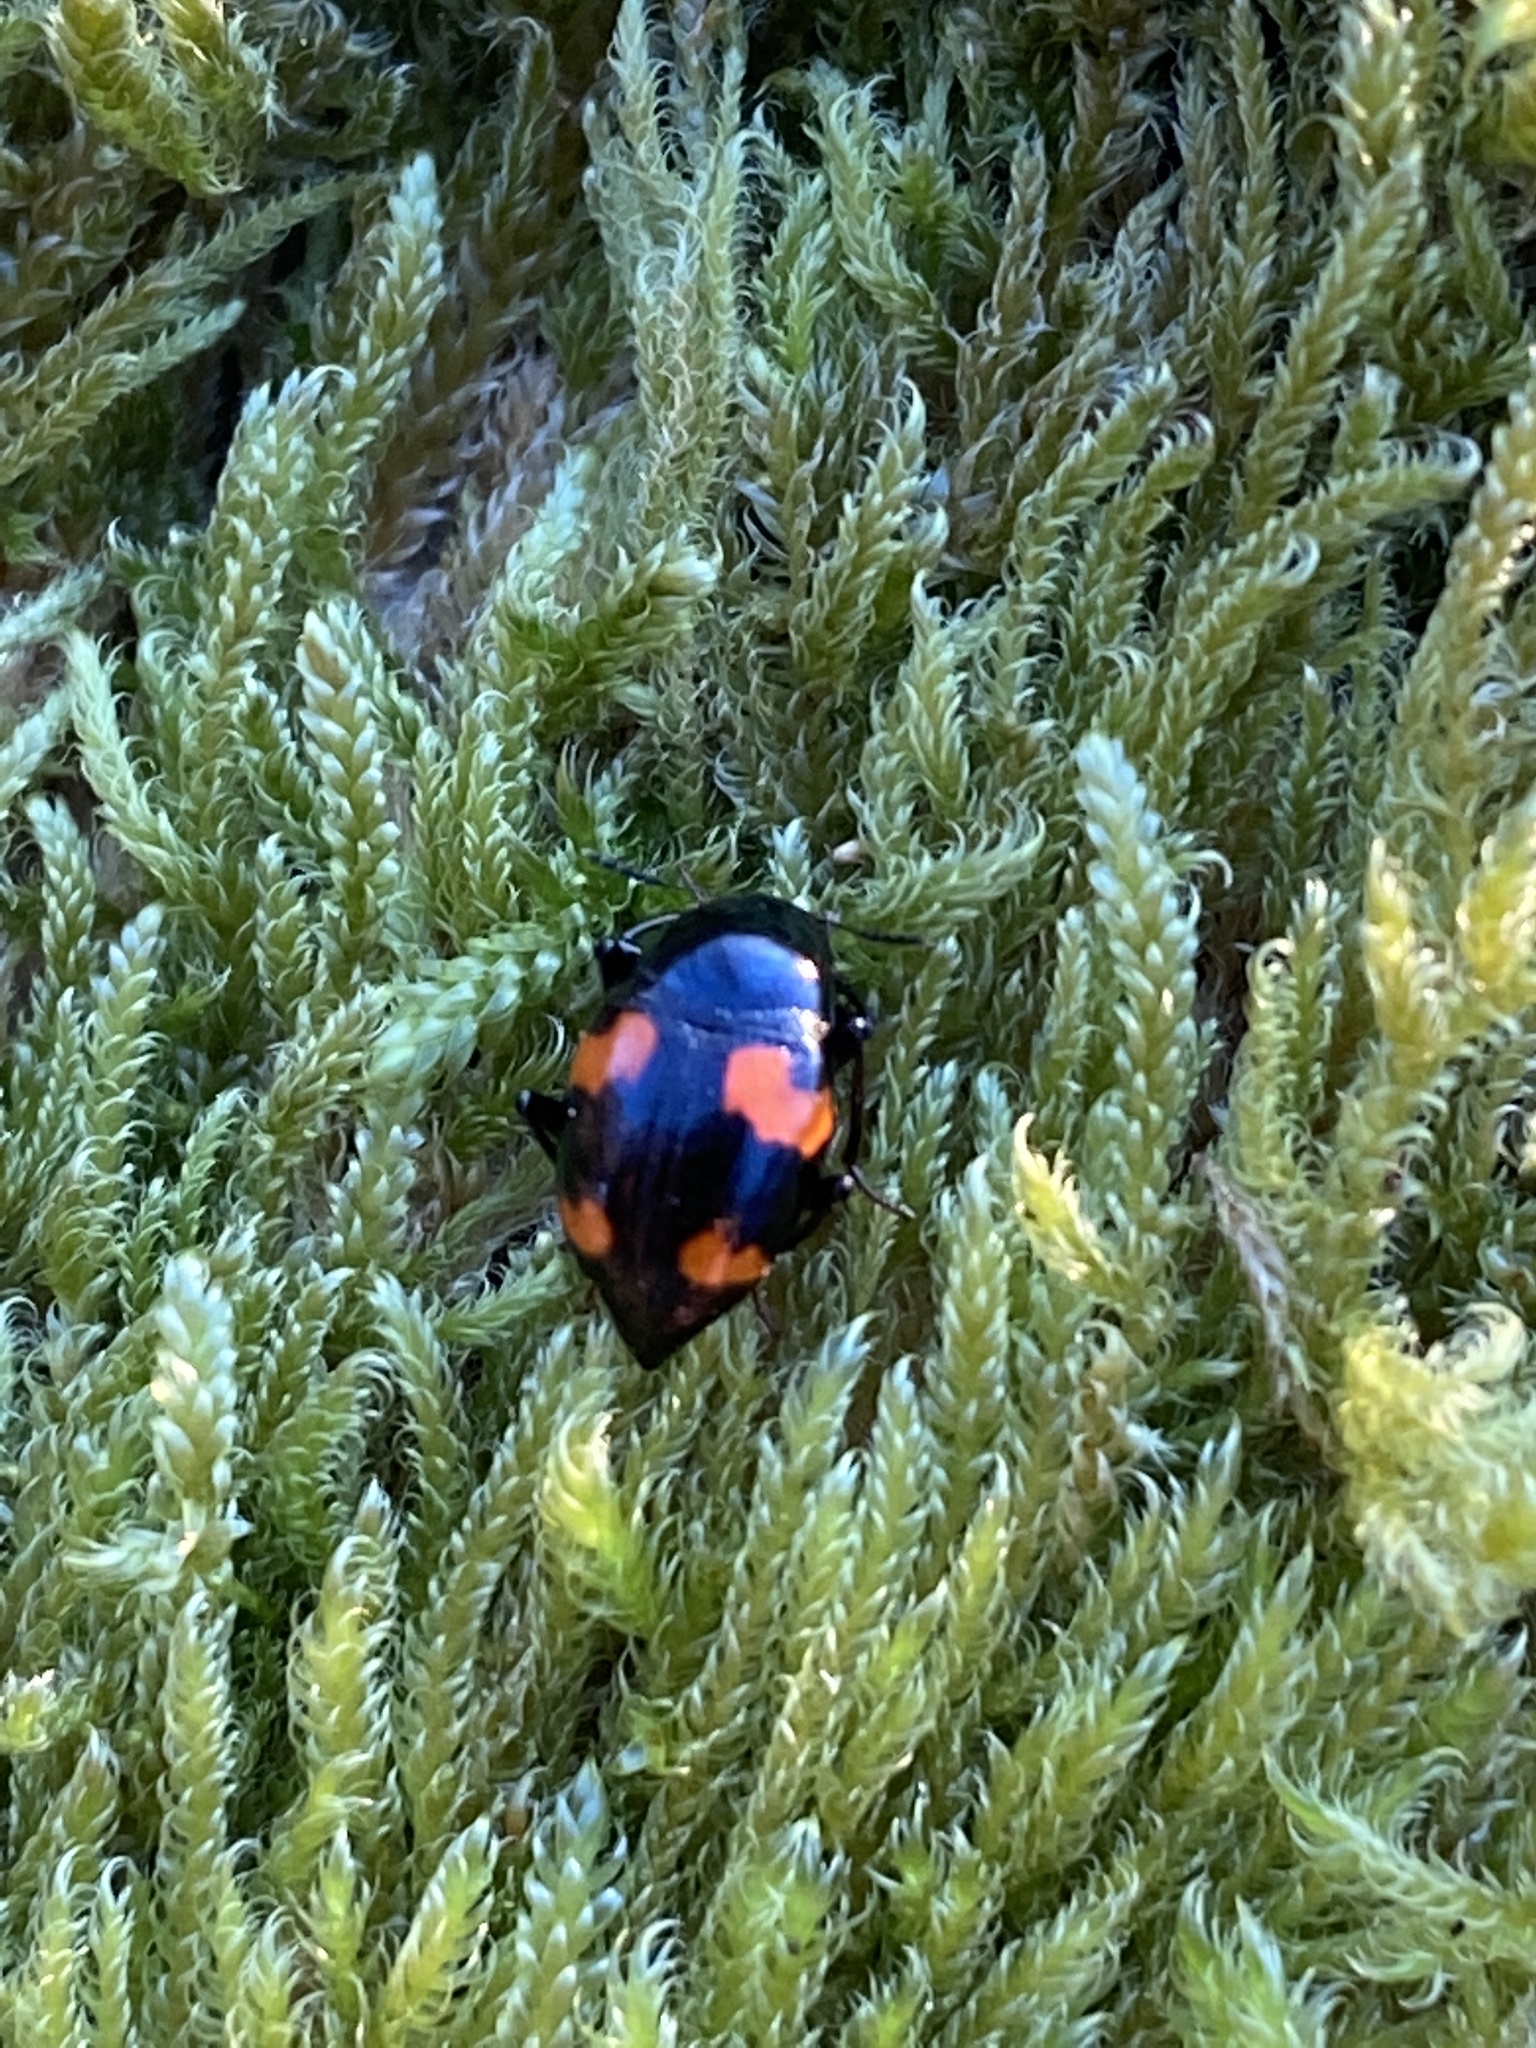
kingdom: Animalia
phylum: Arthropoda
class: Insecta
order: Coleoptera
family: Staphylinidae
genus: Scaphidium
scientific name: Scaphidium quadrimaculatum
